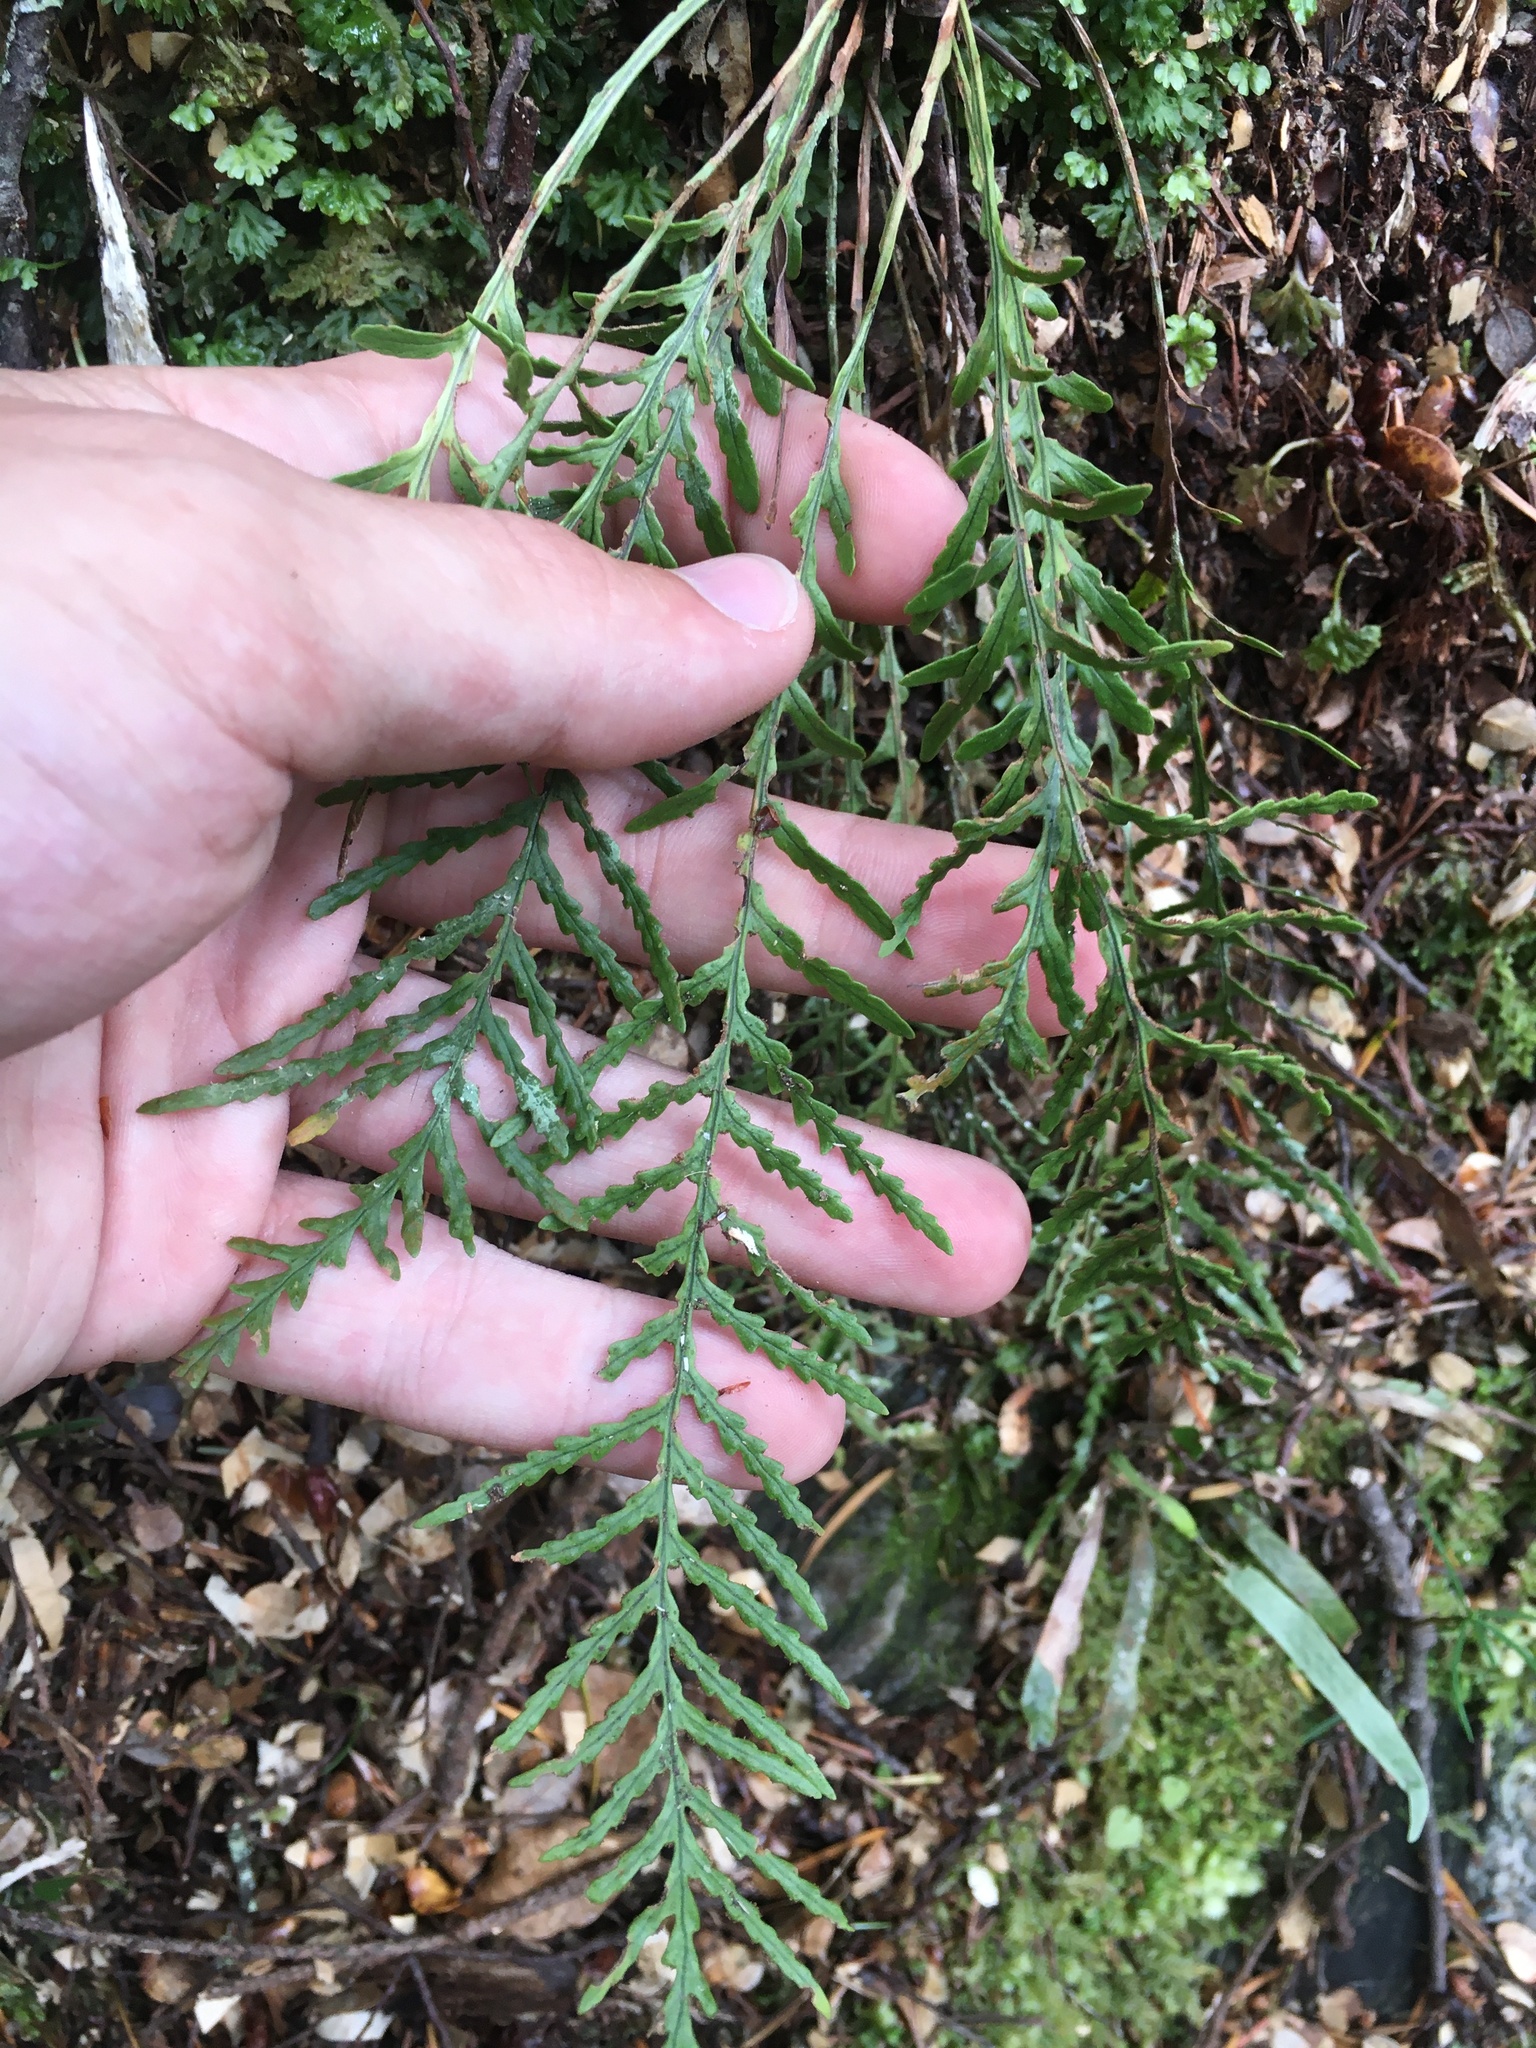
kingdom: Plantae
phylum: Tracheophyta
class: Polypodiopsida
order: Polypodiales
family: Polypodiaceae
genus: Notogrammitis
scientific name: Notogrammitis heterophylla
